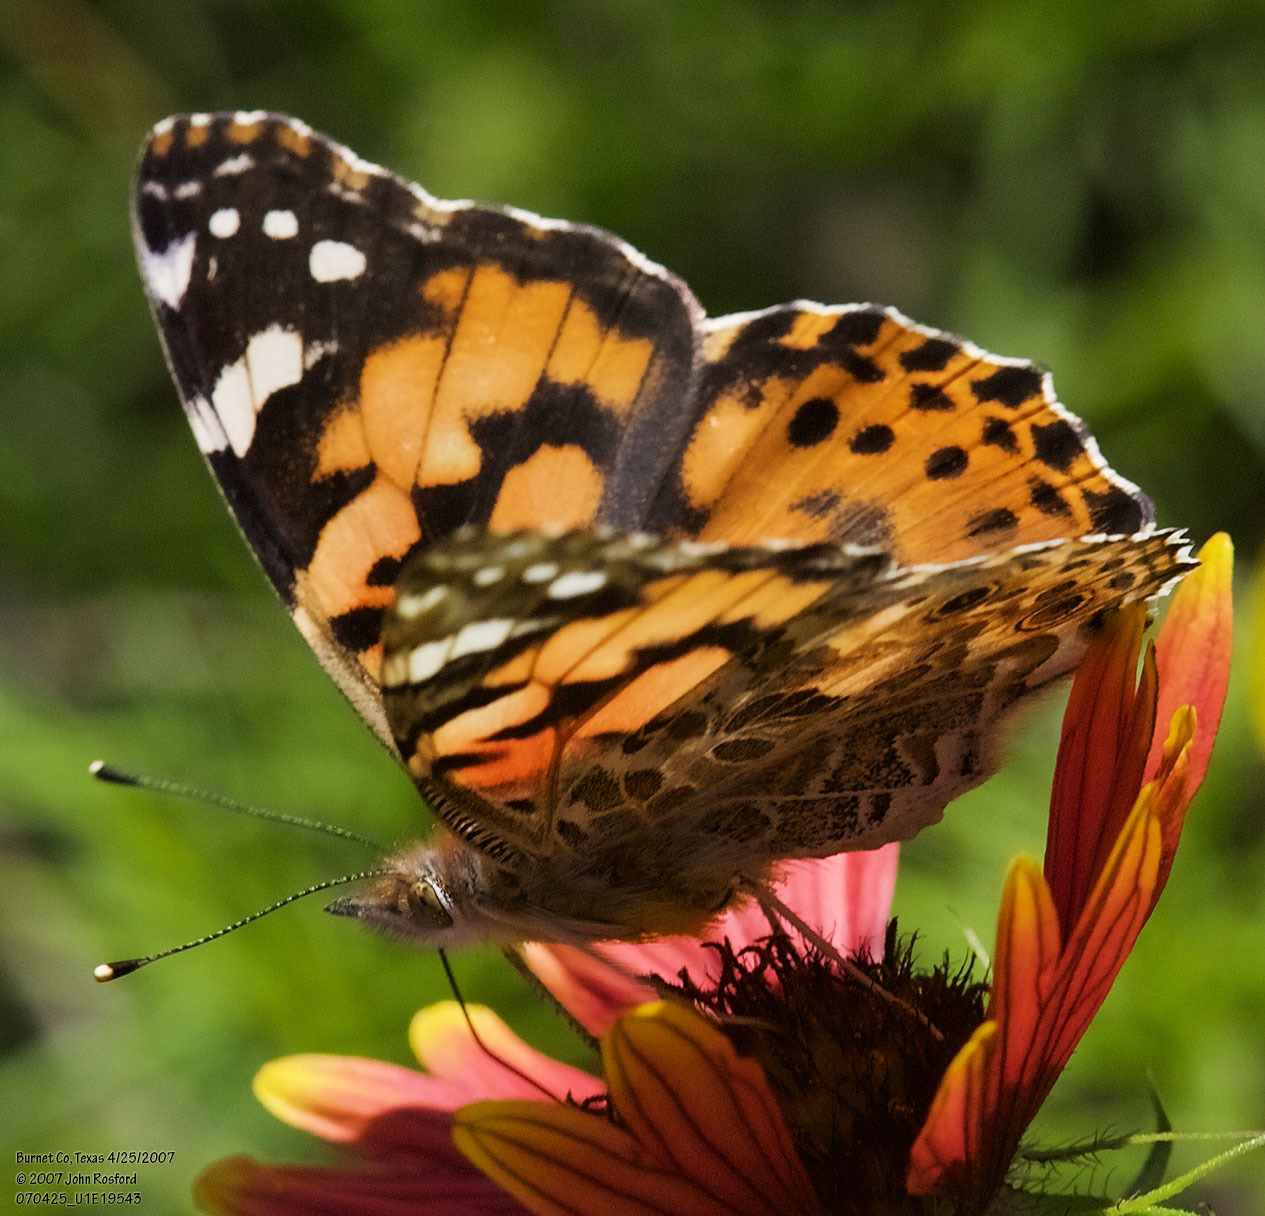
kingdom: Animalia
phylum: Arthropoda
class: Insecta
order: Lepidoptera
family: Nymphalidae
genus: Vanessa
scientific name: Vanessa cardui
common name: Painted lady
